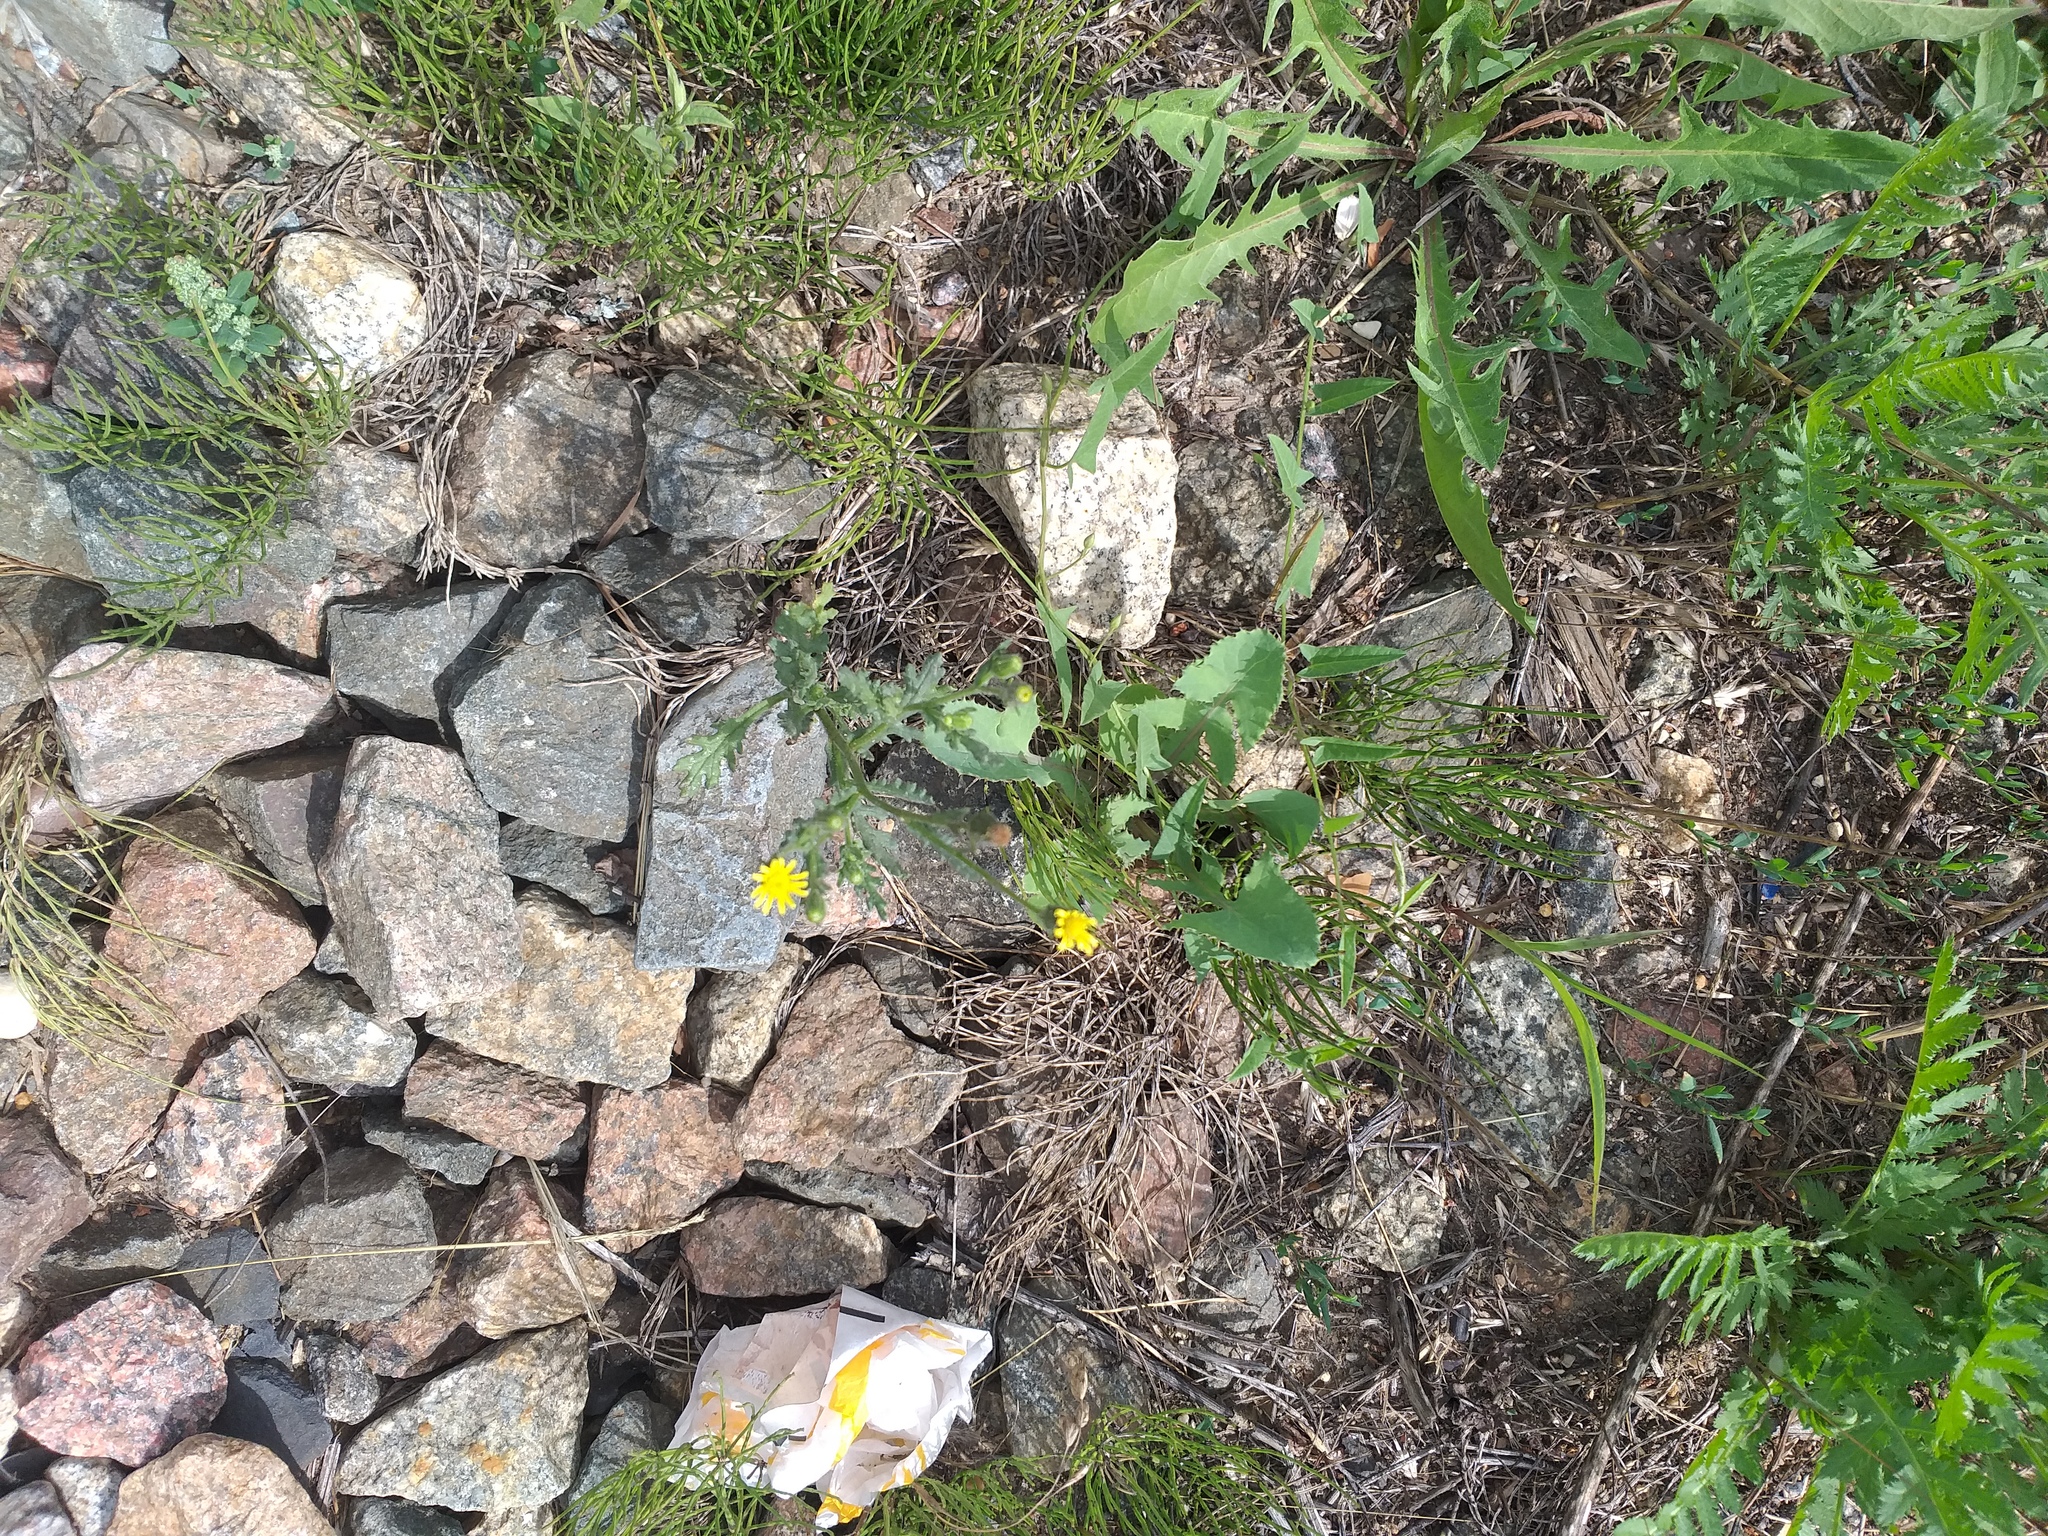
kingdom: Plantae
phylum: Tracheophyta
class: Magnoliopsida
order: Asterales
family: Asteraceae
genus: Senecio
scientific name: Senecio viscosus
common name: Sticky groundsel
